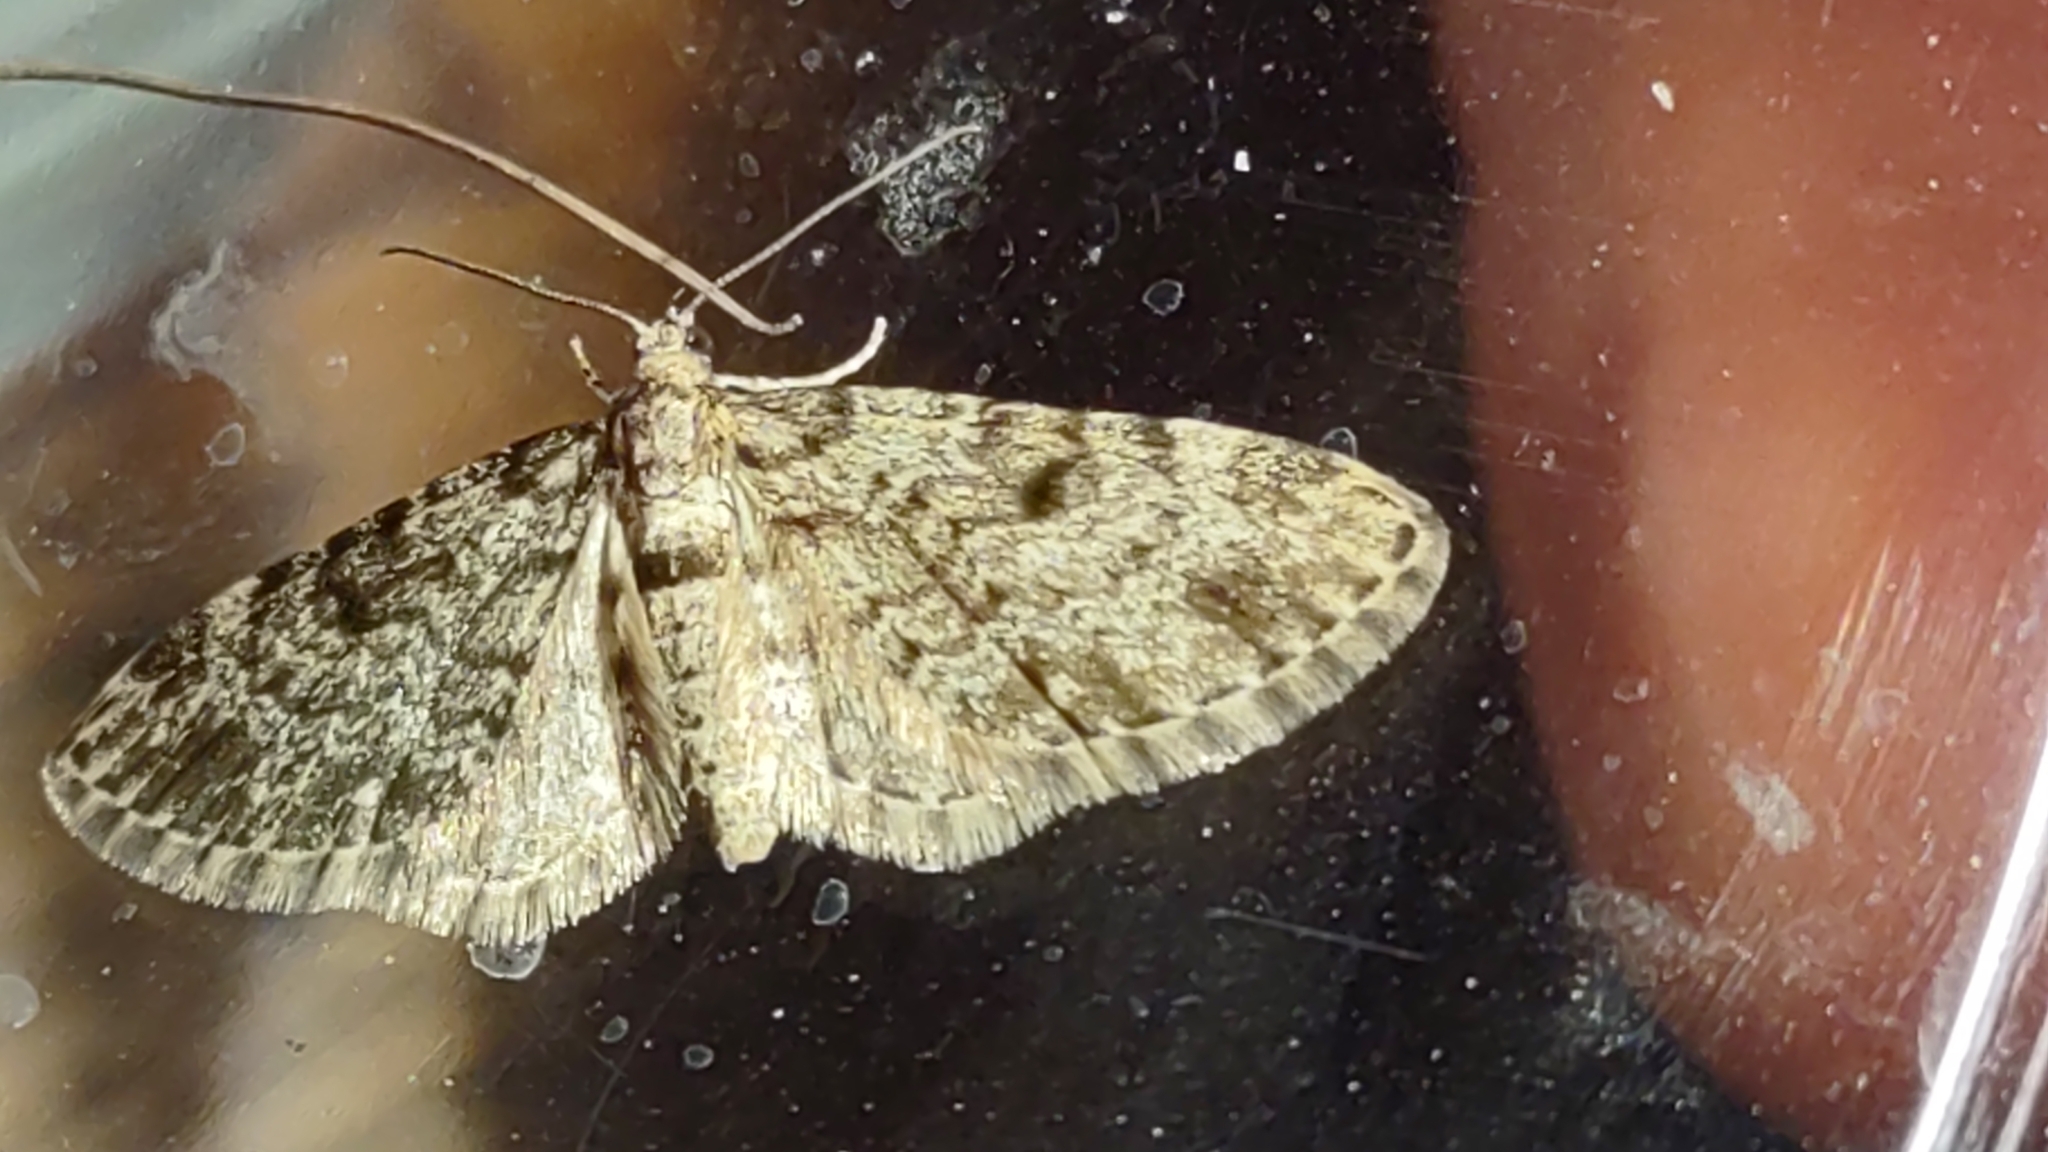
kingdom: Animalia
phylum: Arthropoda
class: Insecta
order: Lepidoptera
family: Geometridae
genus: Eupithecia
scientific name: Eupithecia tantillaria
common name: Dwarf pug
